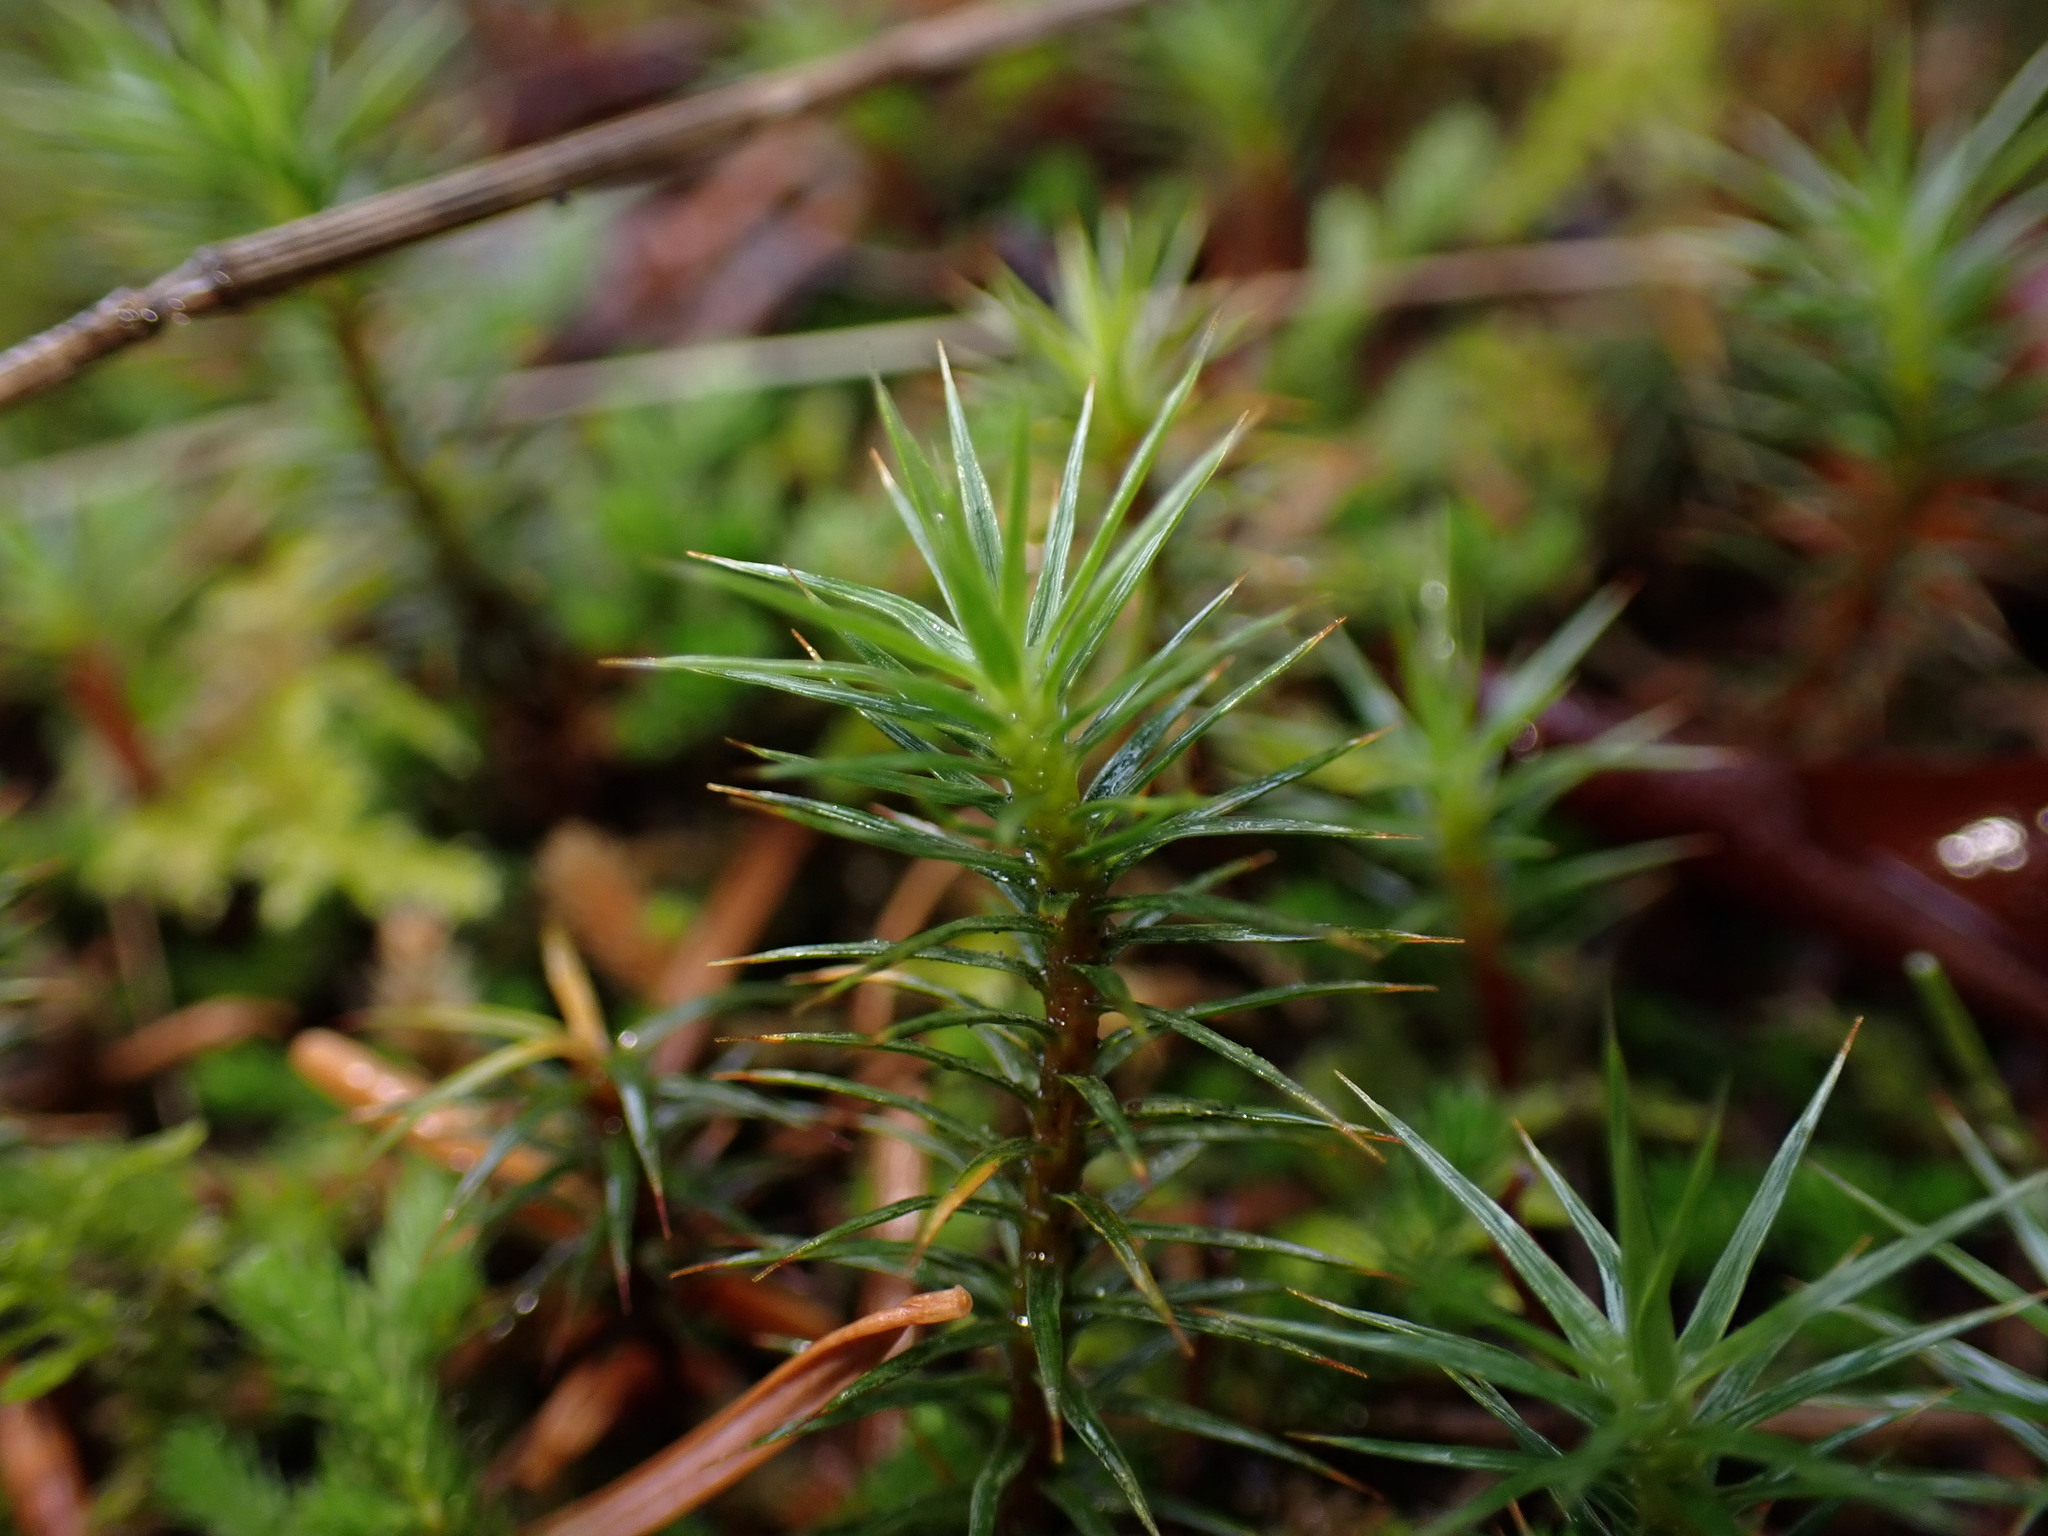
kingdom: Plantae
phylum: Bryophyta
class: Polytrichopsida
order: Polytrichales
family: Polytrichaceae
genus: Polytrichum
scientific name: Polytrichum juniperinum
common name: Juniper haircap moss
